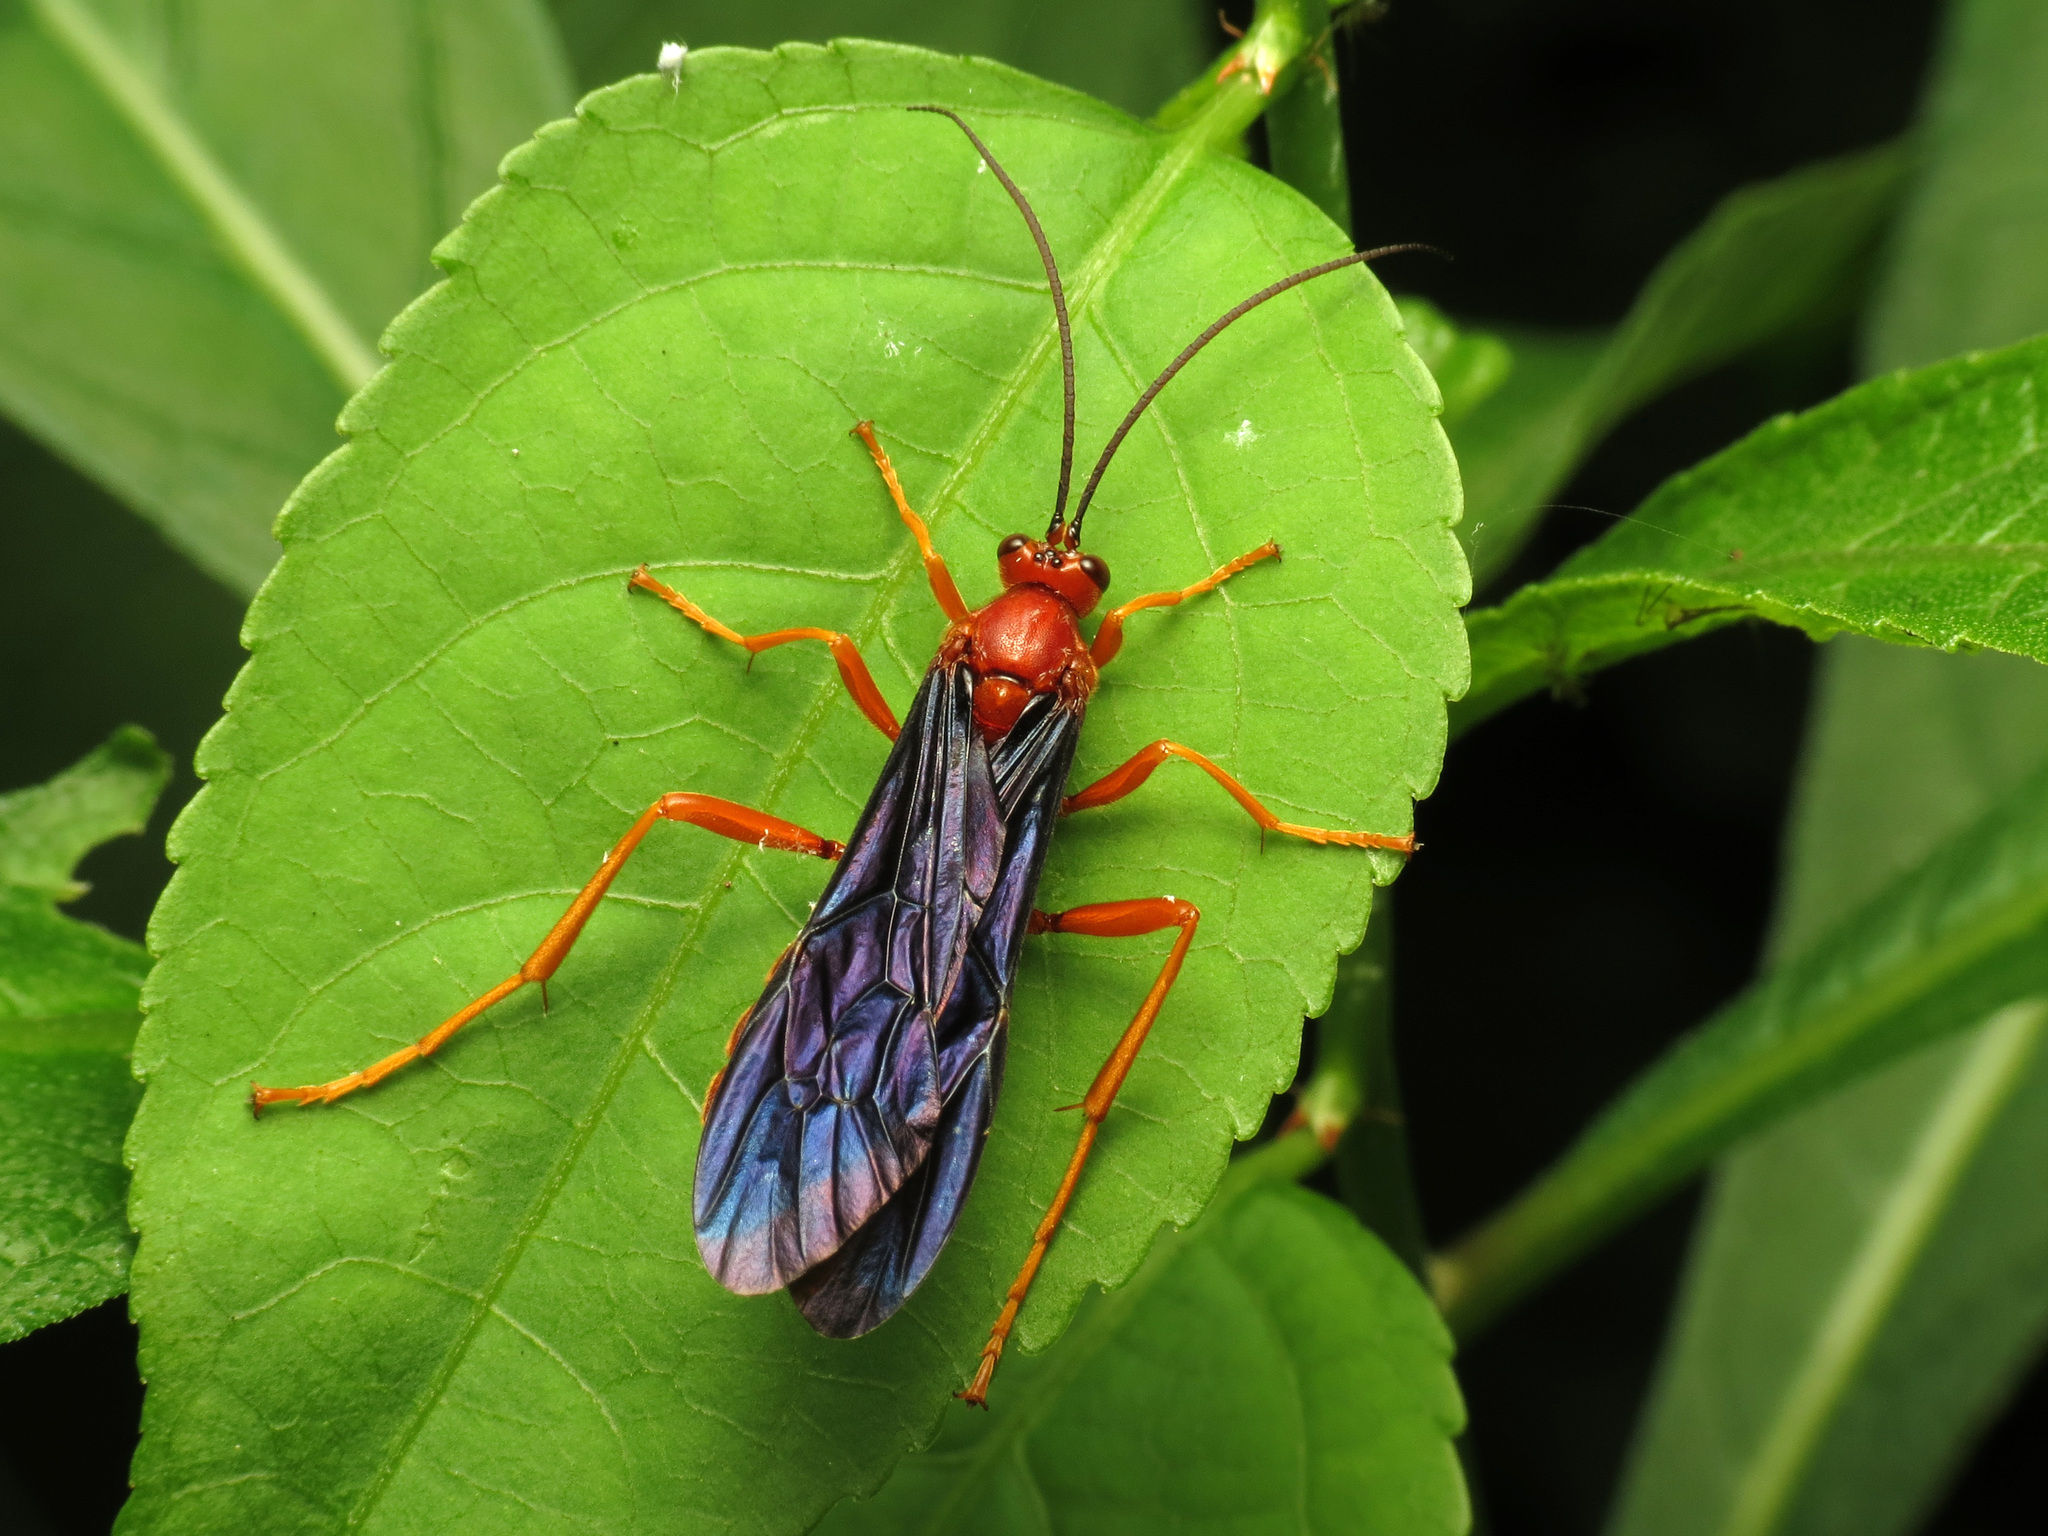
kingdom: Animalia
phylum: Arthropoda
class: Insecta
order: Hymenoptera
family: Ichneumonidae
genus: Trogus
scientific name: Trogus pennator
